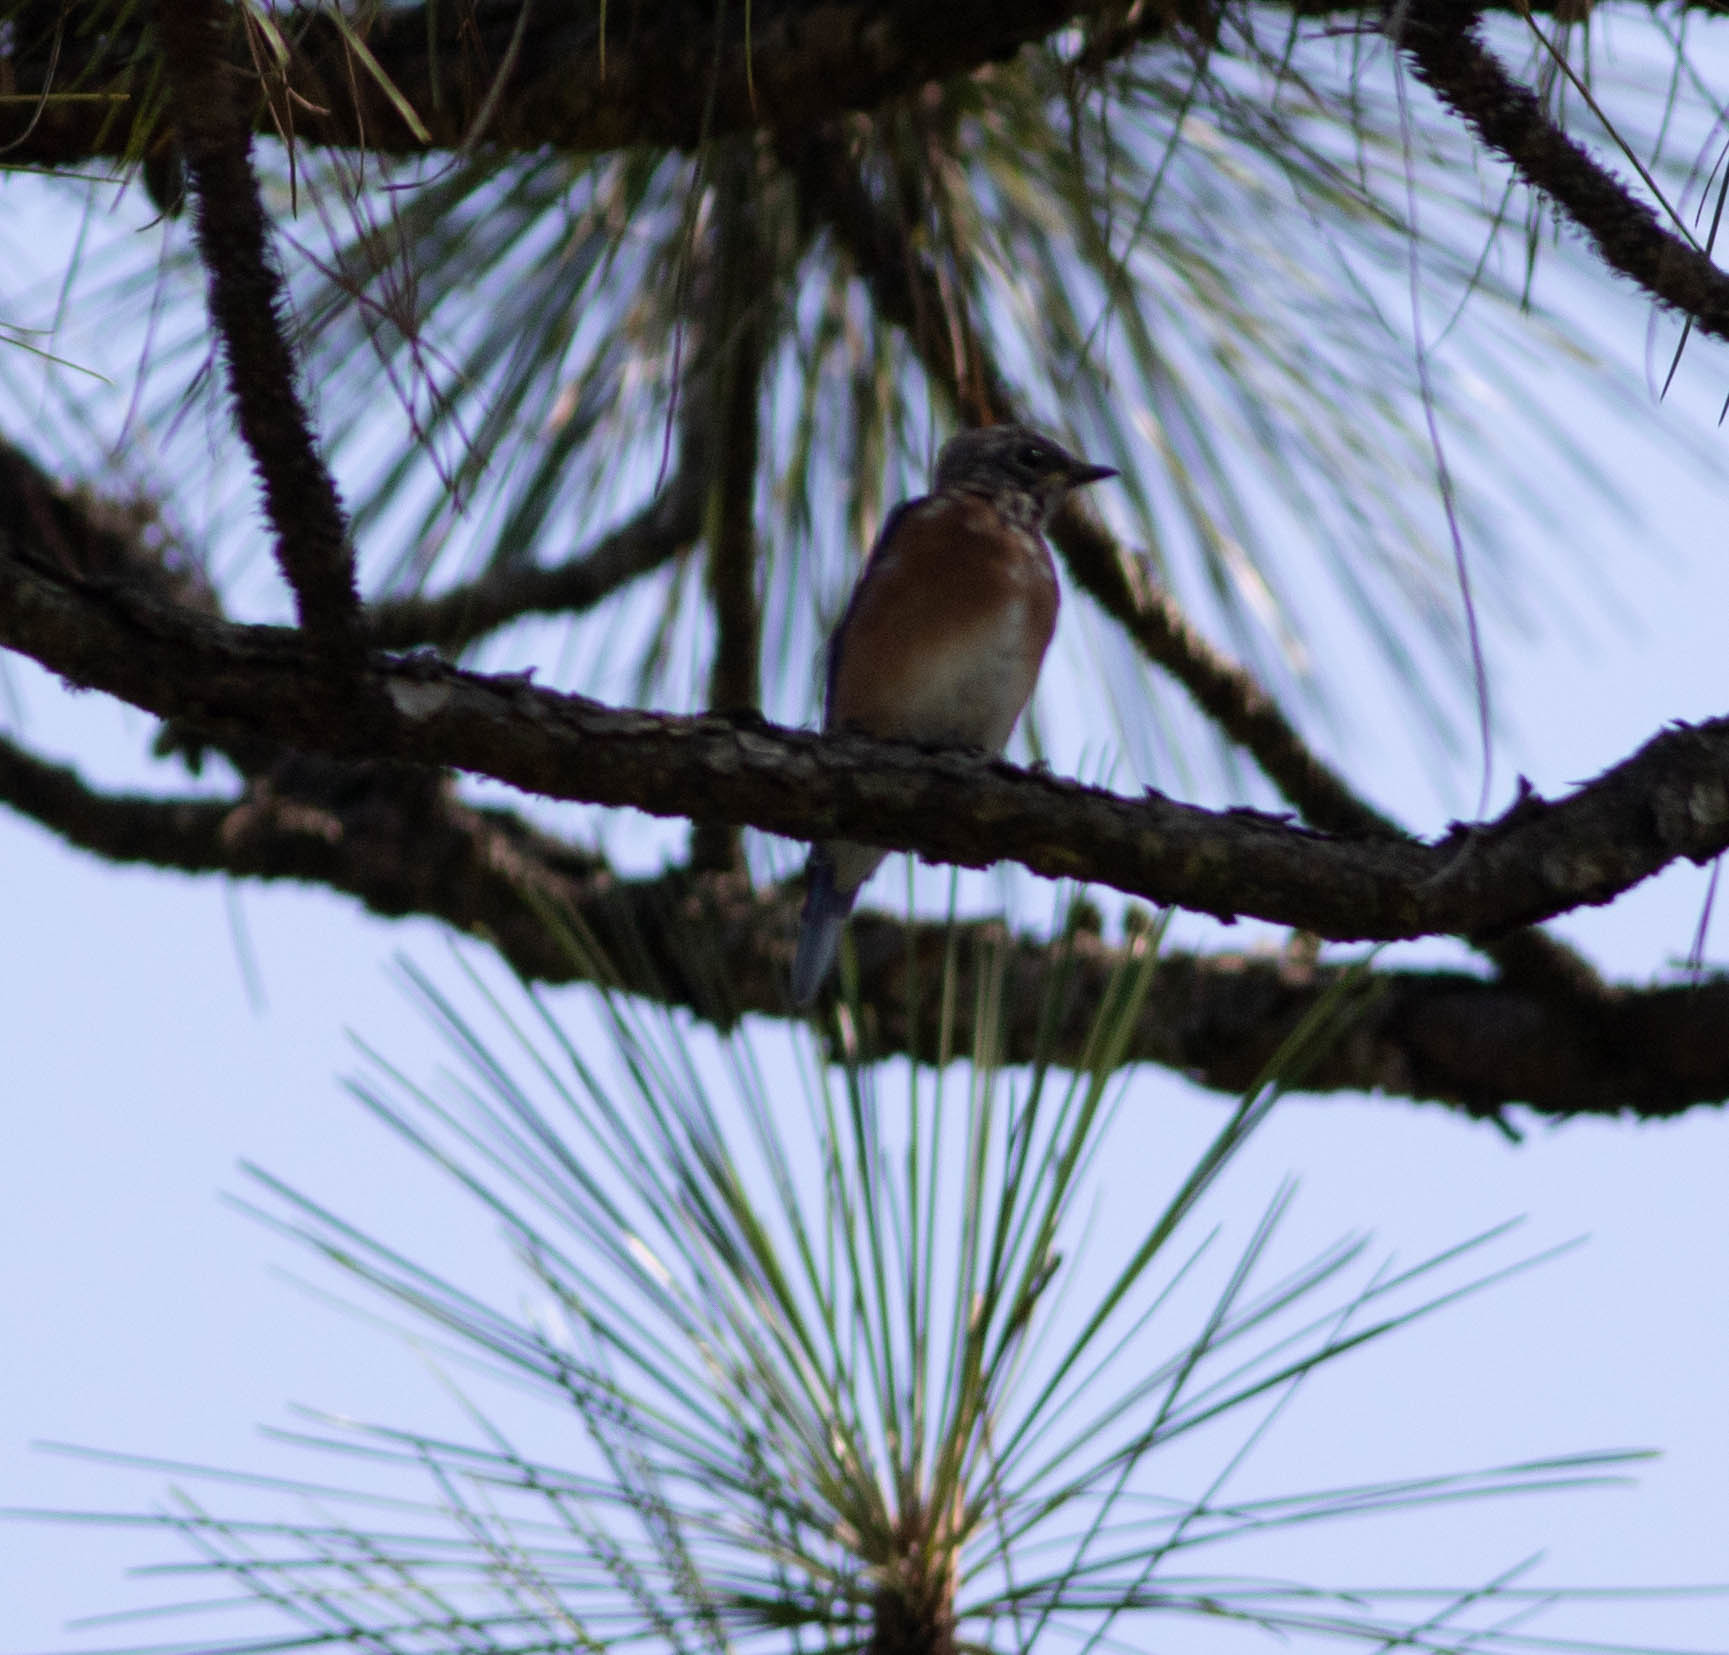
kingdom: Animalia
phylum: Chordata
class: Aves
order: Passeriformes
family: Turdidae
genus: Sialia
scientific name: Sialia sialis
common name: Eastern bluebird
